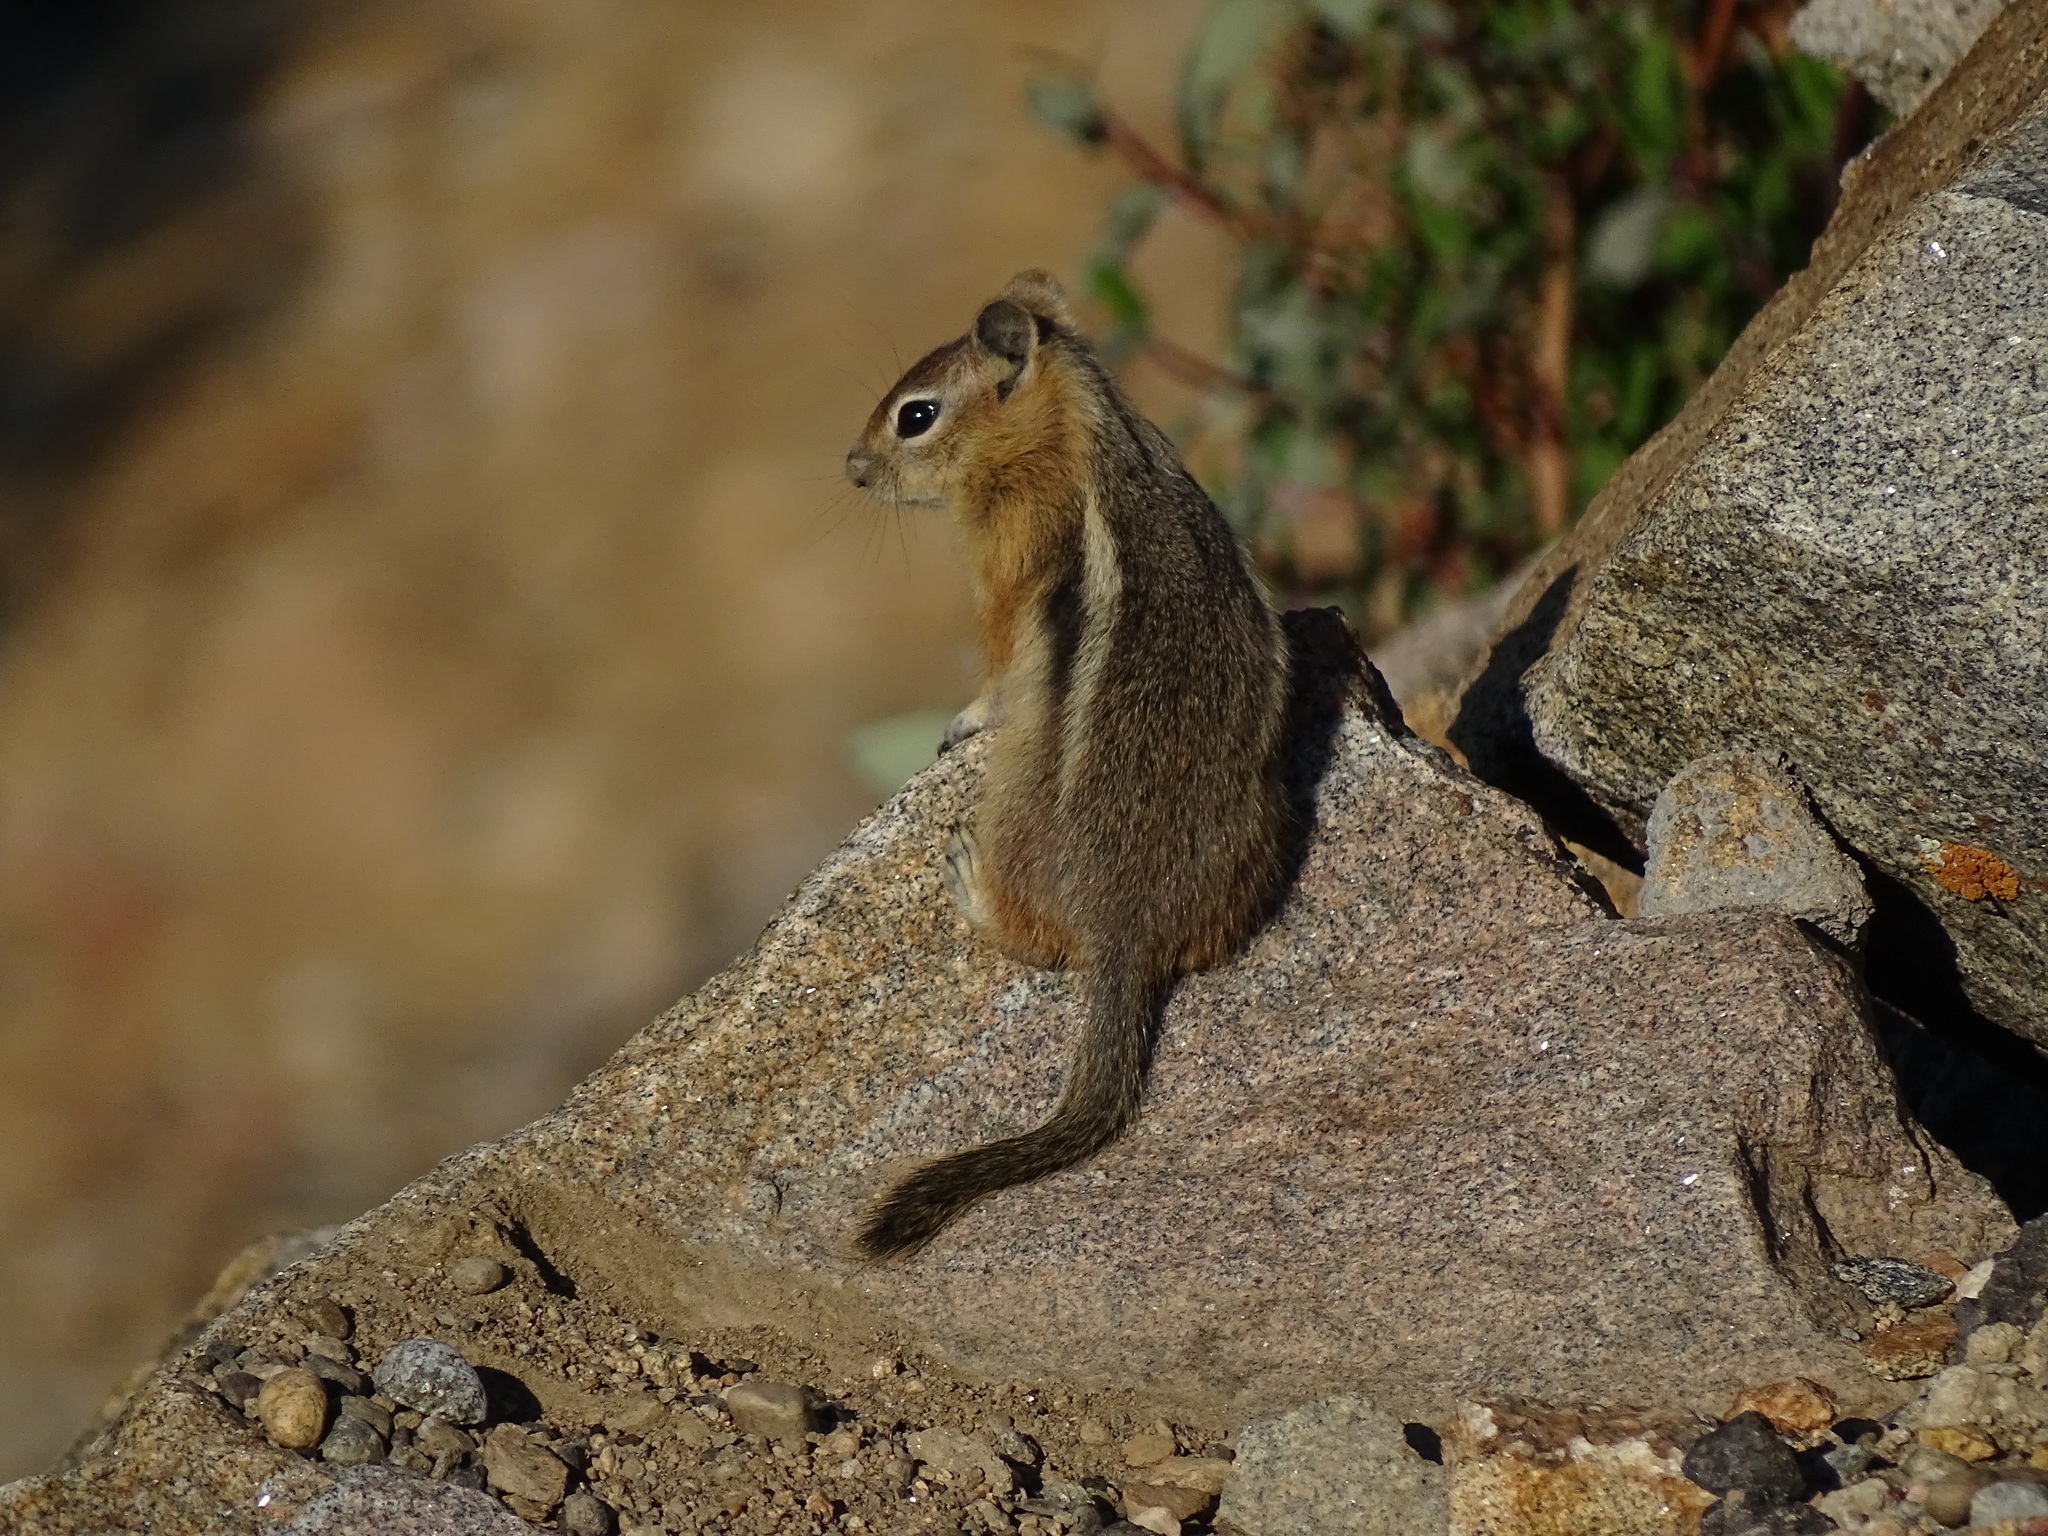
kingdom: Animalia
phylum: Chordata
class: Mammalia
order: Rodentia
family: Sciuridae
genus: Callospermophilus
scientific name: Callospermophilus lateralis
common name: Golden-mantled ground squirrel
